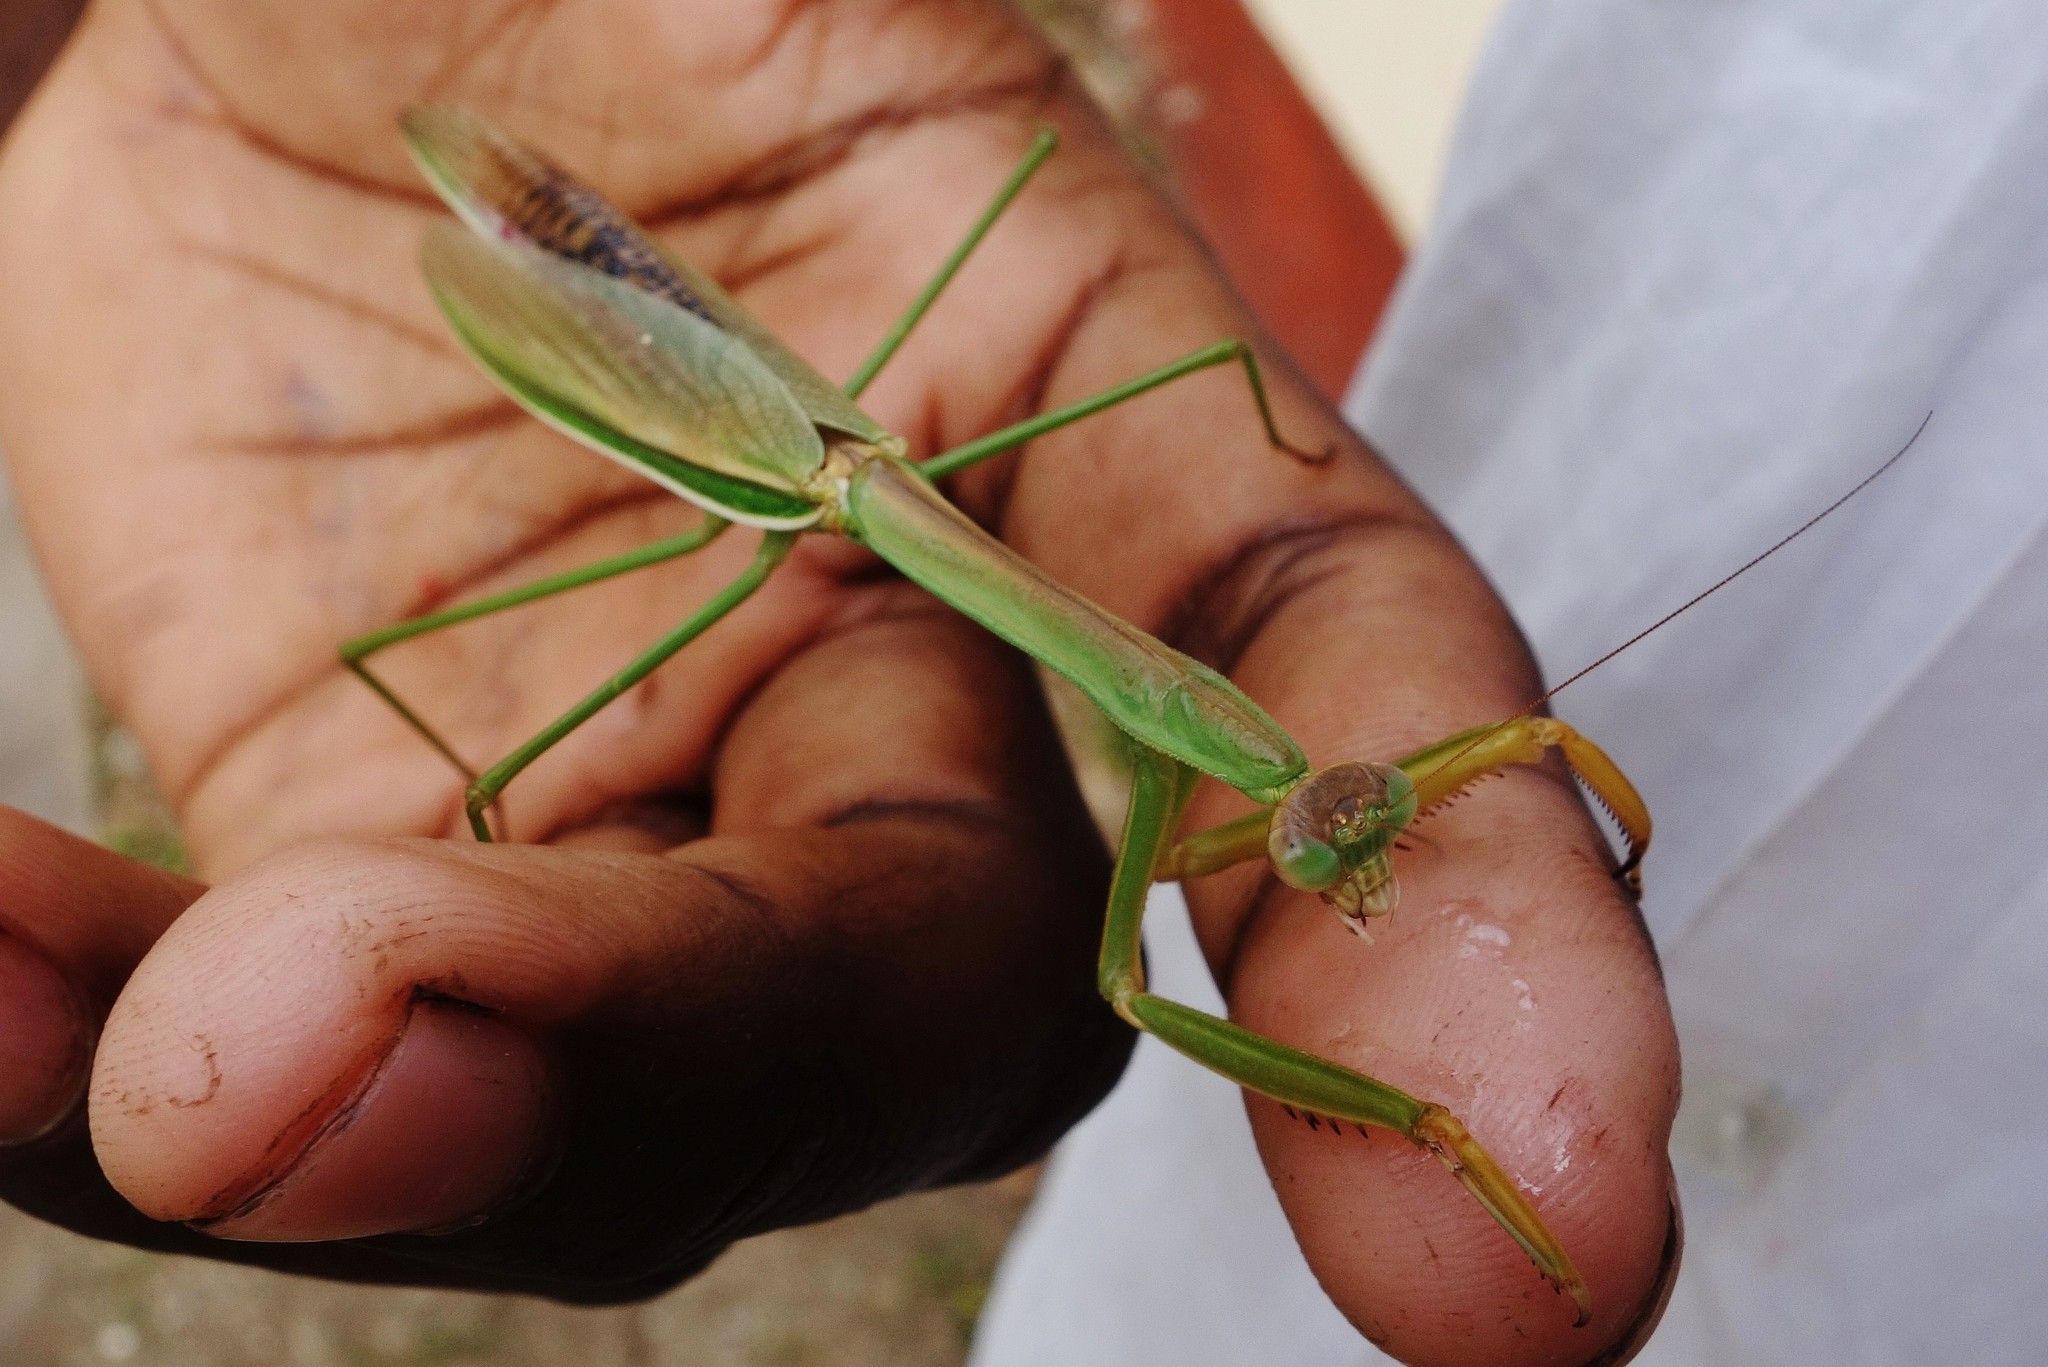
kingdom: Animalia
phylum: Arthropoda
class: Insecta
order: Mantodea
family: Mantidae
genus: Tenodera
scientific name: Tenodera australasiae
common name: Purple-winged mantis
